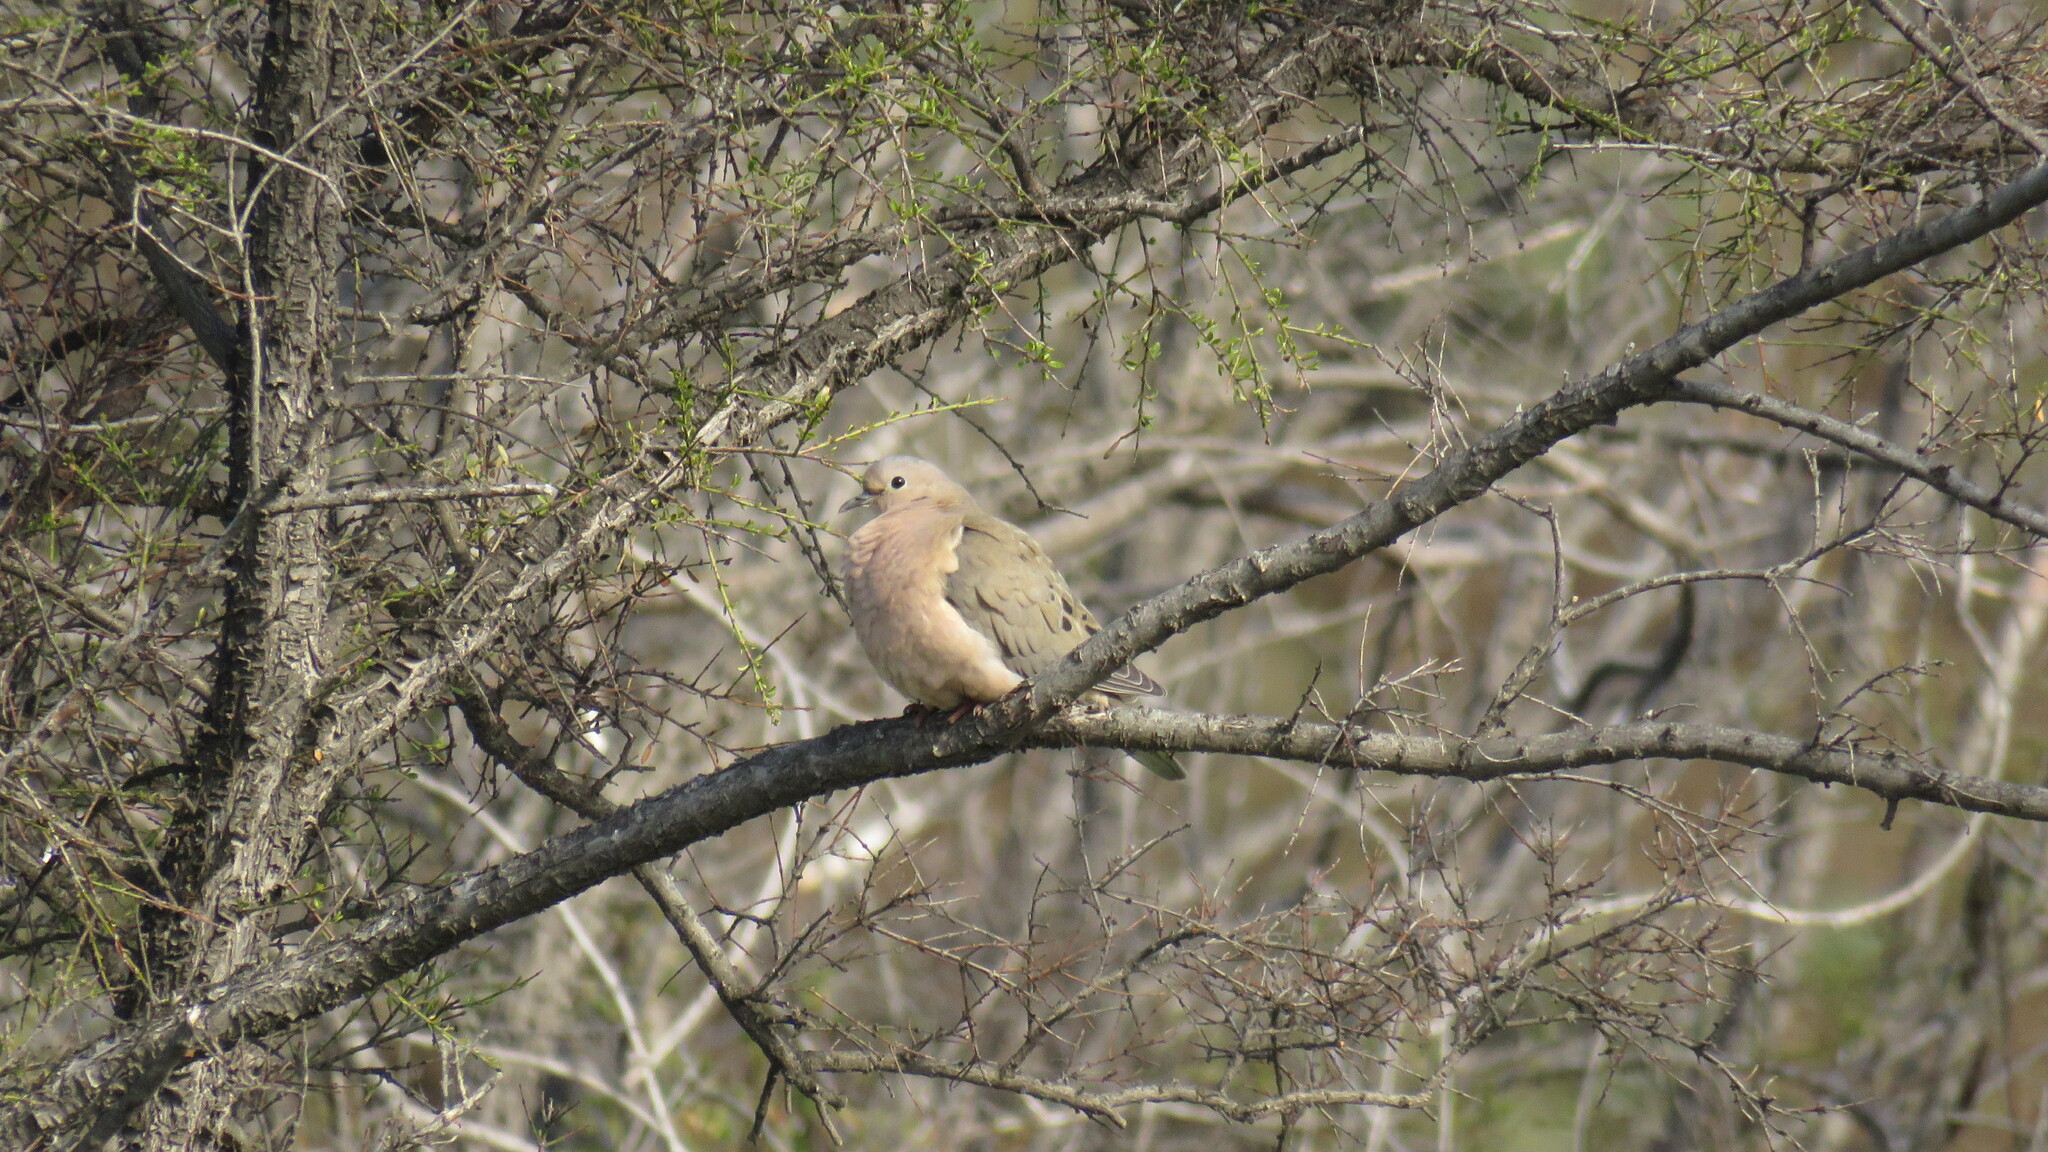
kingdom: Animalia
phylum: Chordata
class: Aves
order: Columbiformes
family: Columbidae
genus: Zenaida
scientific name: Zenaida auriculata
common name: Eared dove
